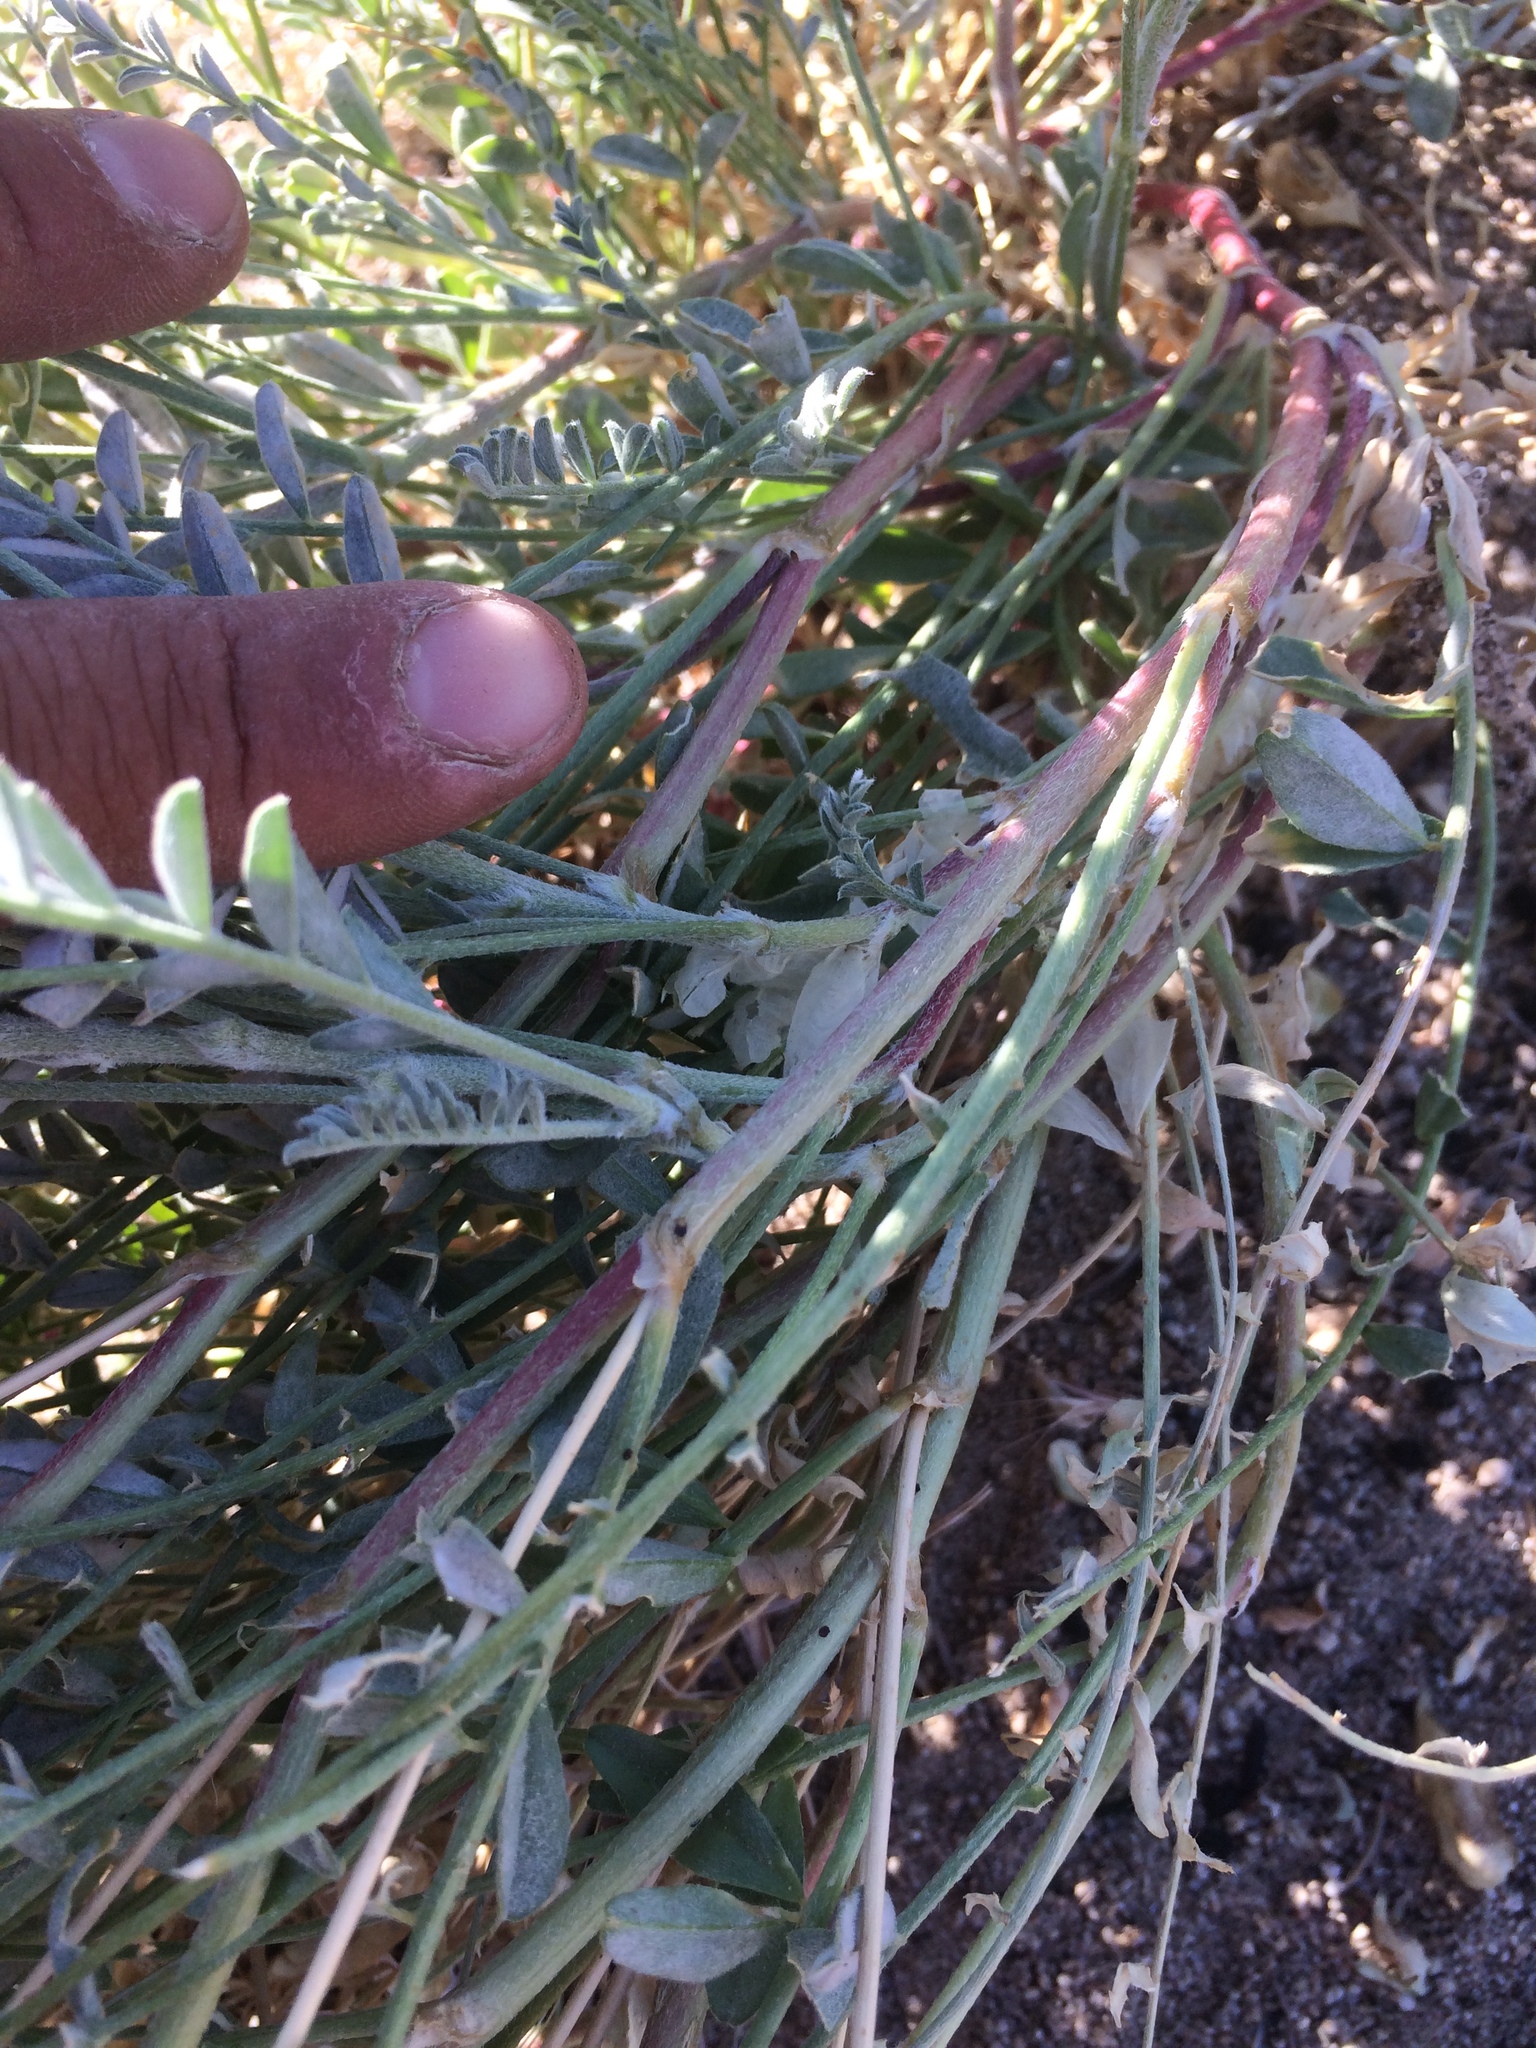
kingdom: Plantae
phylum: Tracheophyta
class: Magnoliopsida
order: Fabales
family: Fabaceae
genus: Astragalus
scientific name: Astragalus lentiginosus
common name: Freckled milkvetch
